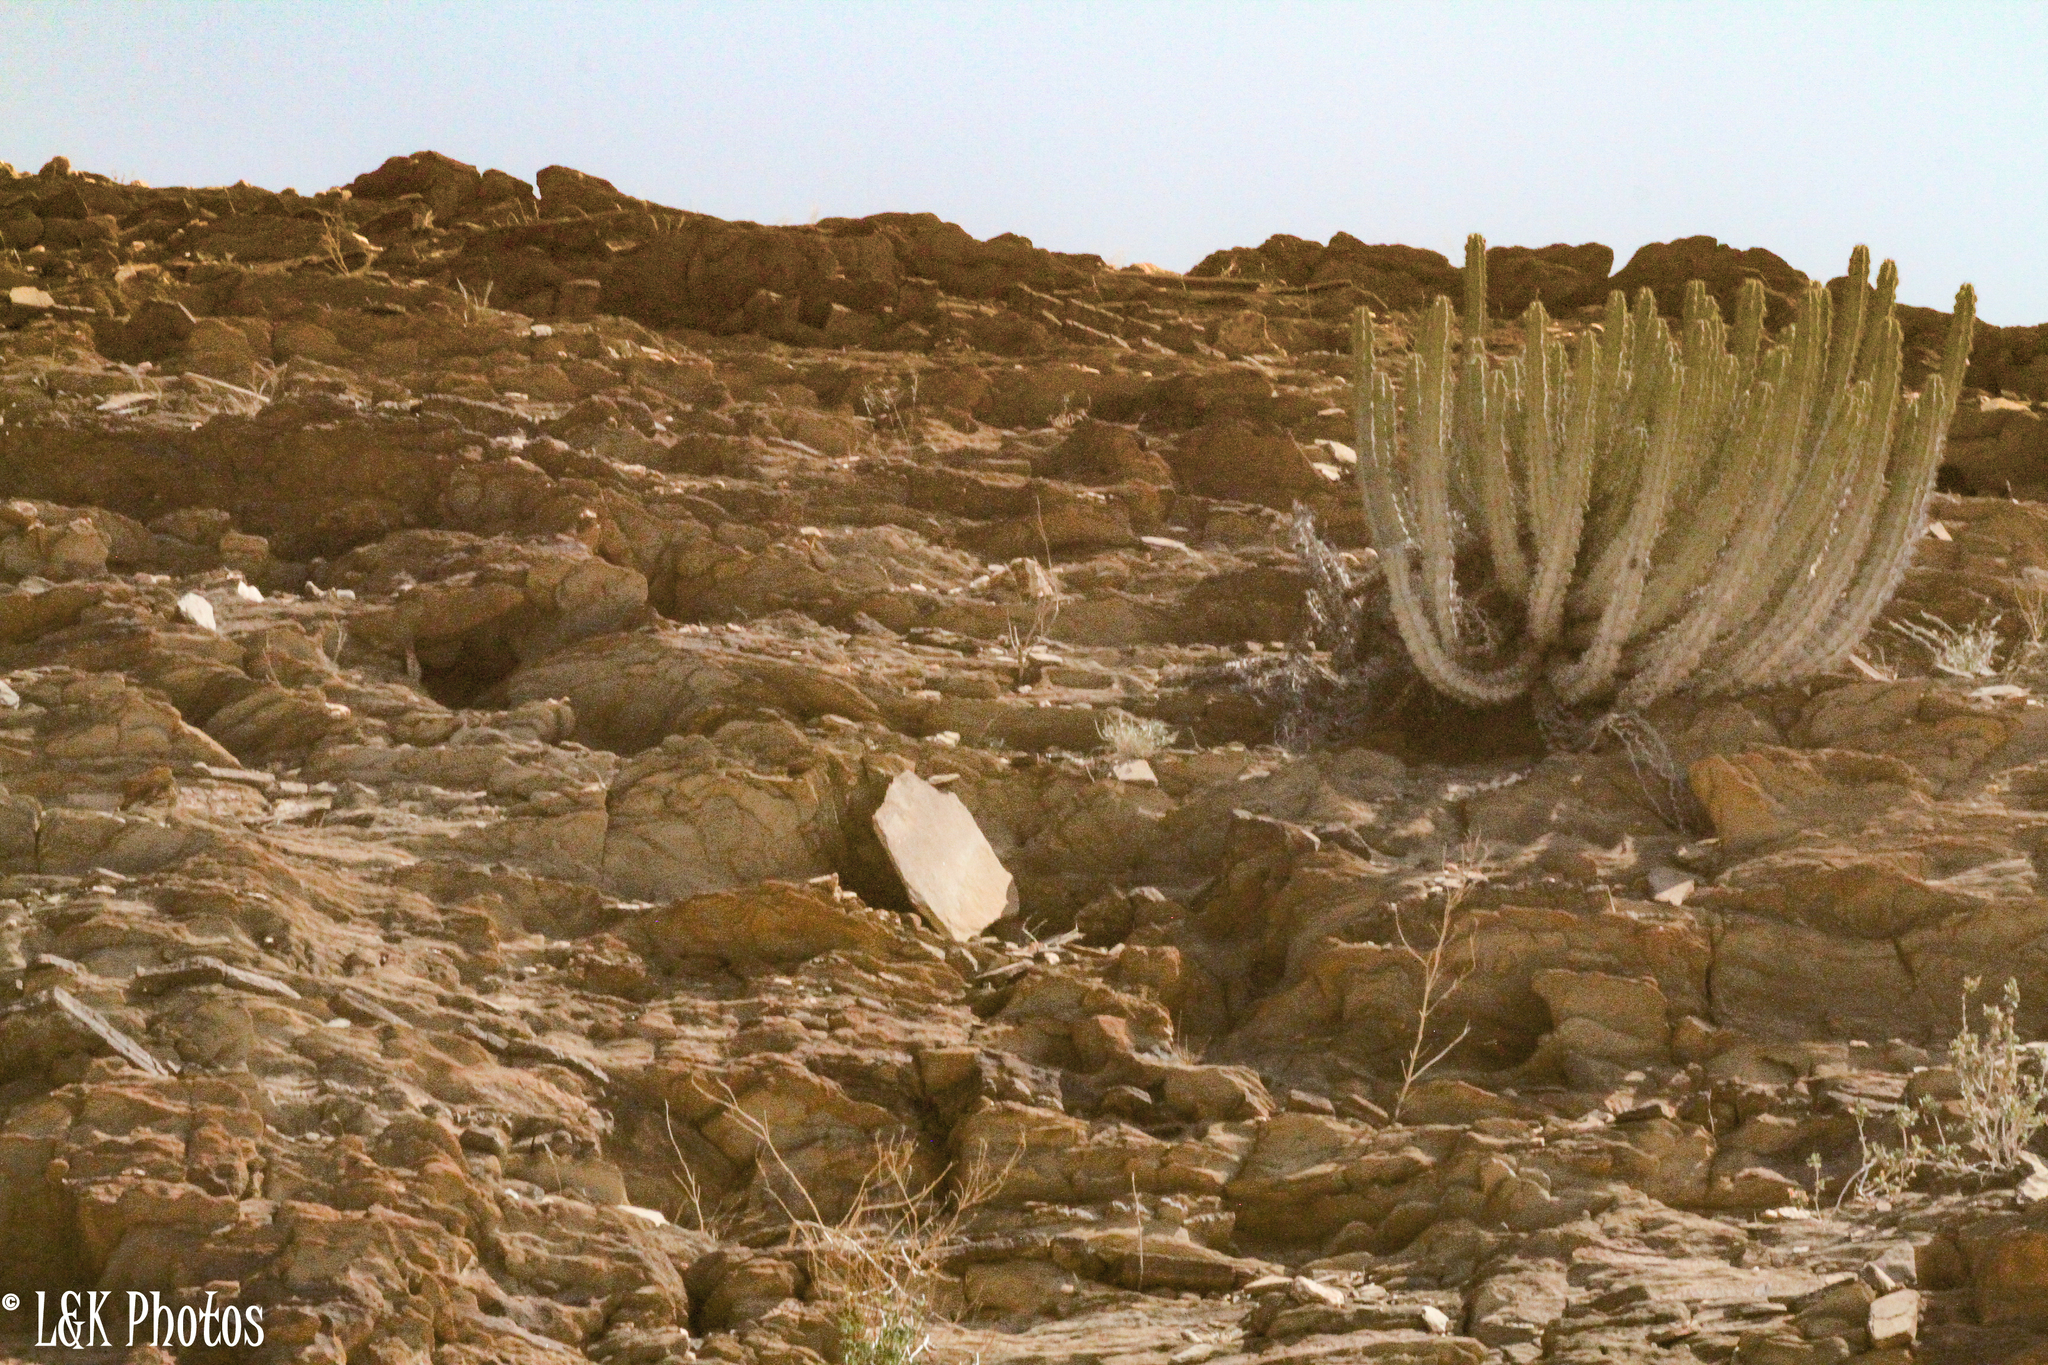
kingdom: Plantae
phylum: Tracheophyta
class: Magnoliopsida
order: Malpighiales
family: Euphorbiaceae
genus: Euphorbia
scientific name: Euphorbia virosa
